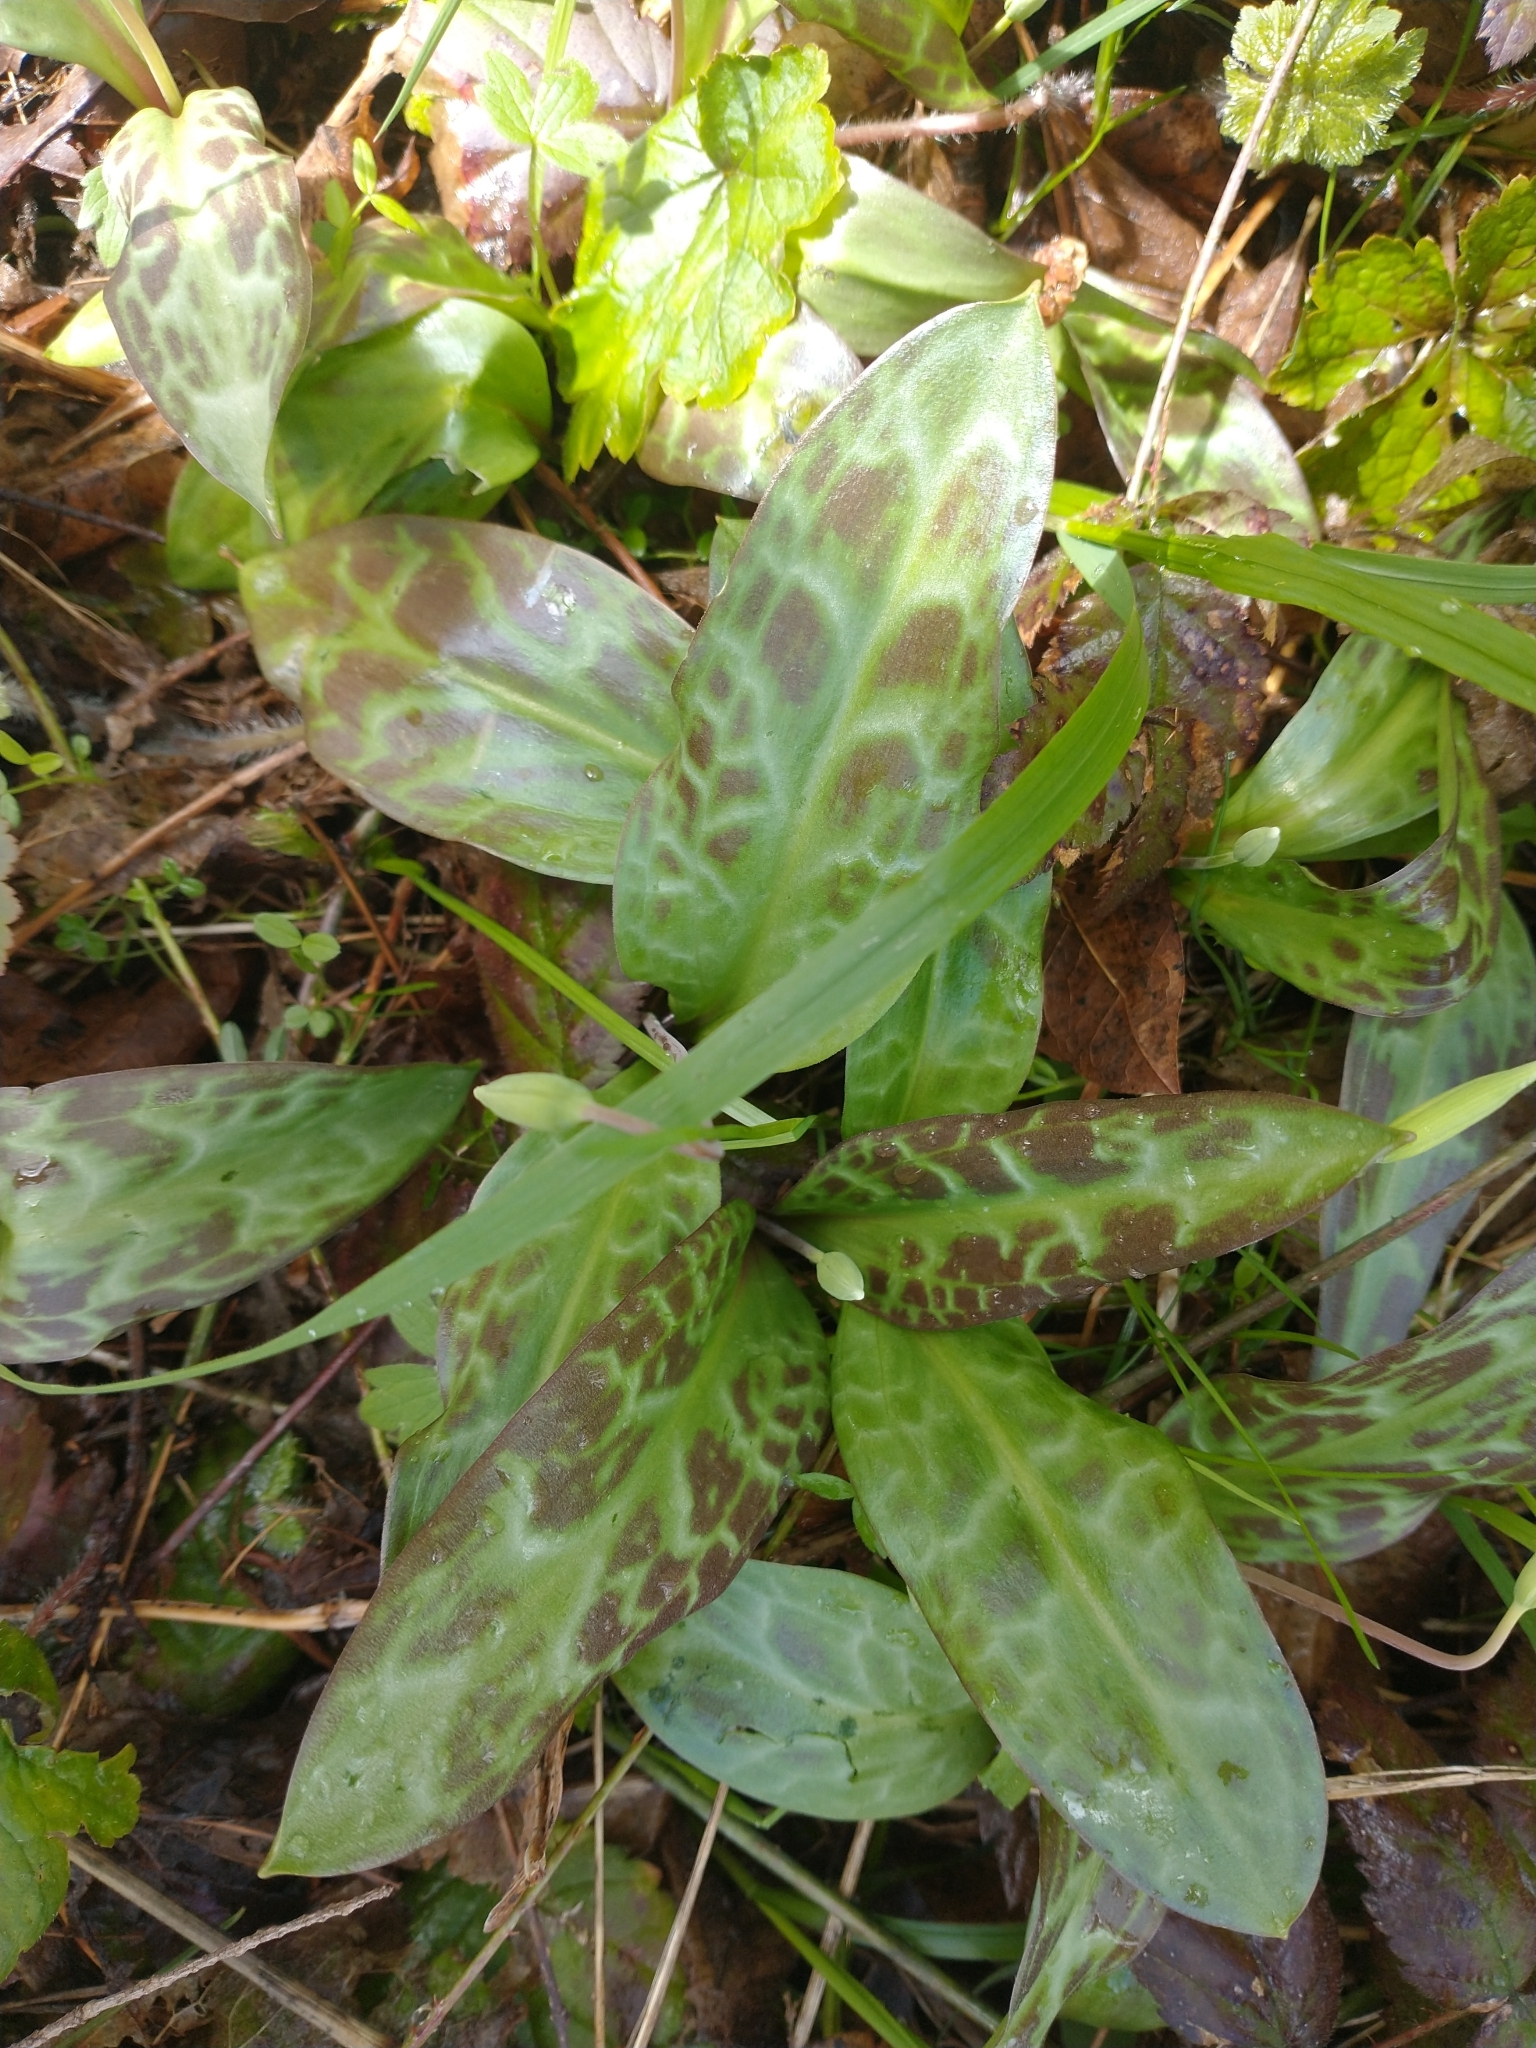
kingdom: Plantae
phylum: Tracheophyta
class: Liliopsida
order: Liliales
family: Liliaceae
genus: Erythronium
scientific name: Erythronium oregonum
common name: Giant adder's-tongue
